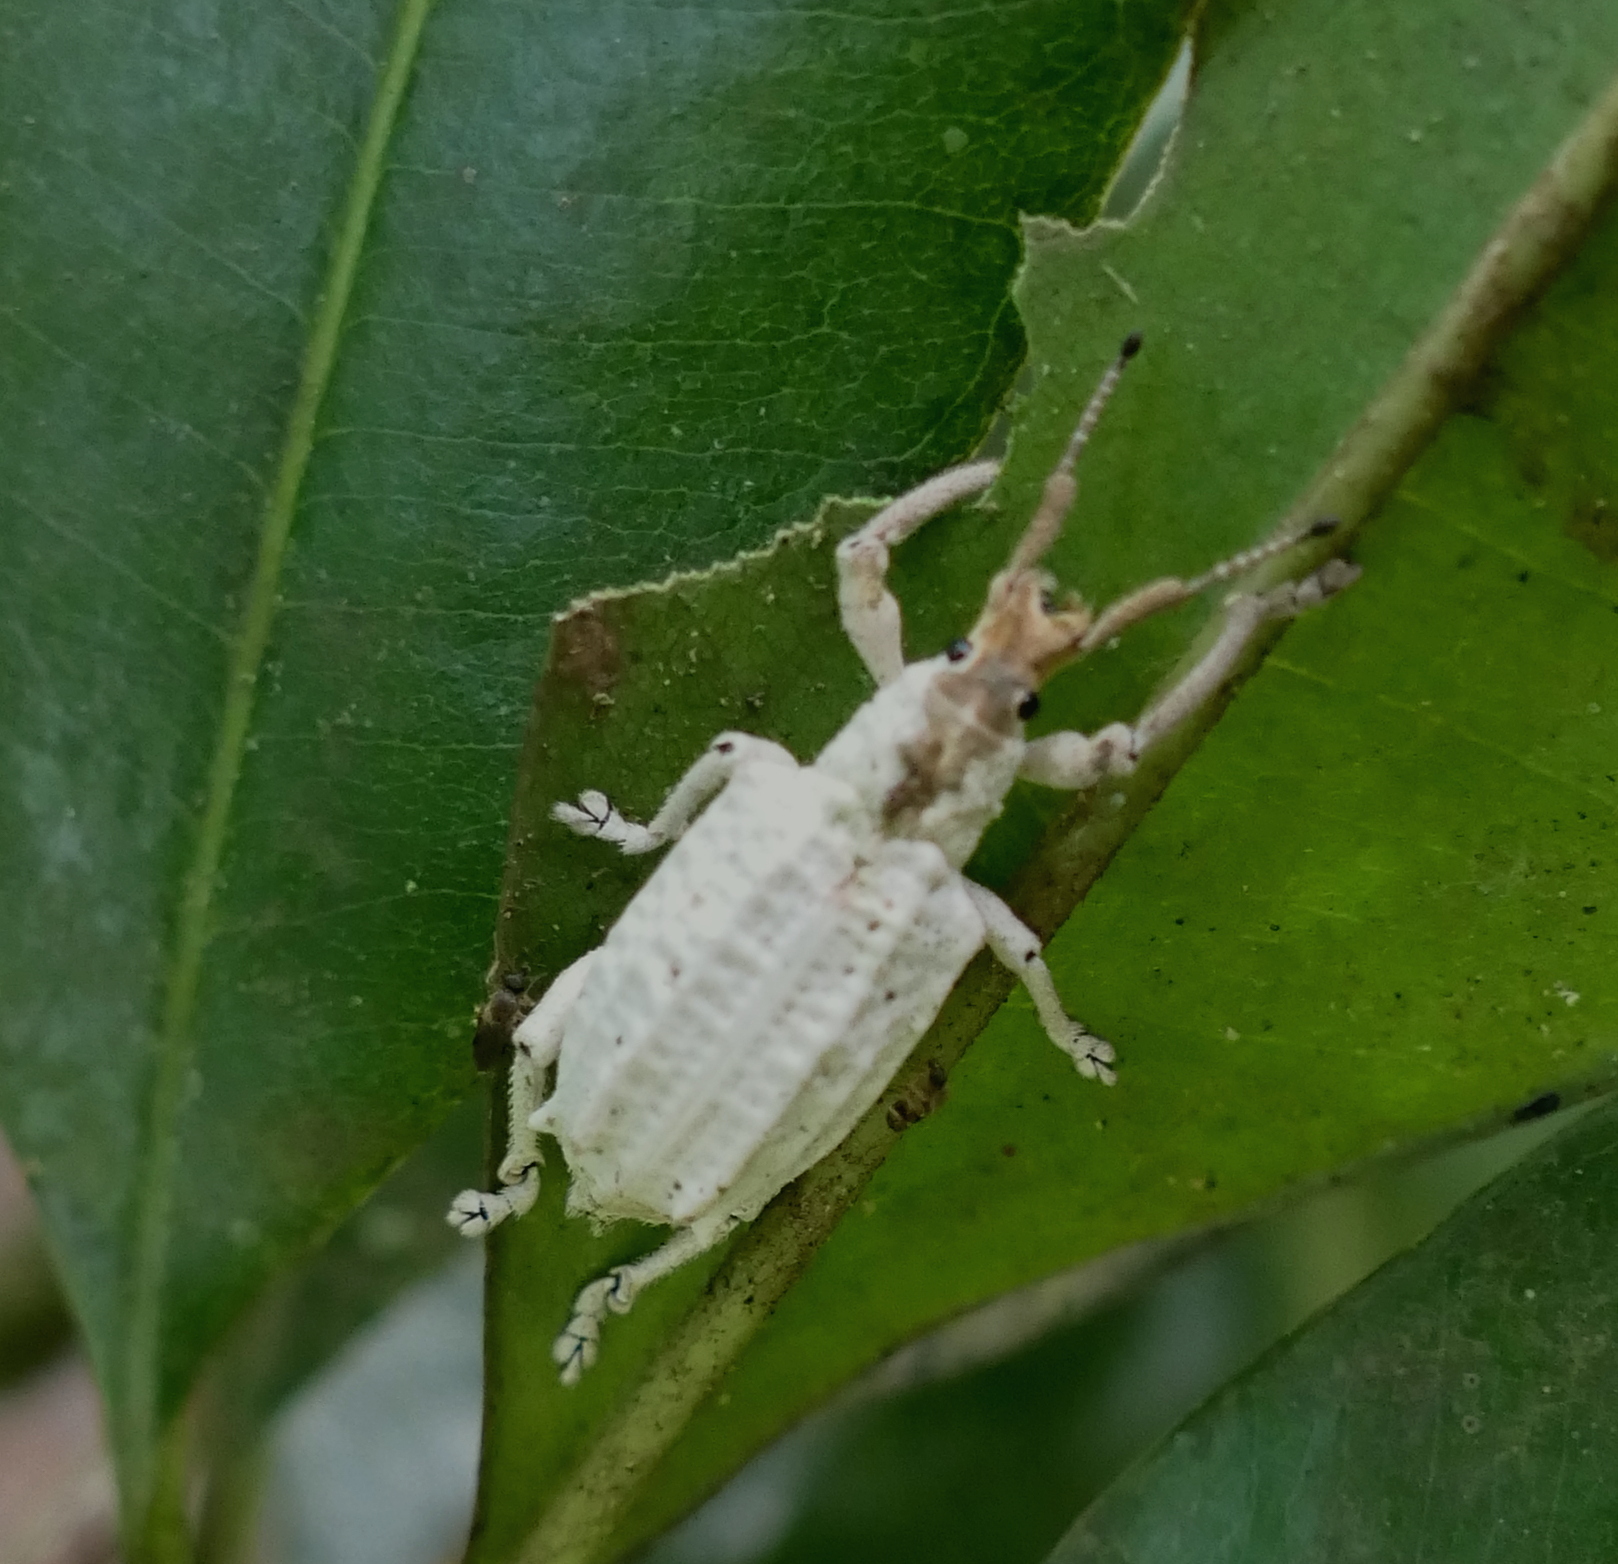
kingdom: Animalia
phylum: Arthropoda
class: Insecta
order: Coleoptera
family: Curculionidae
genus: Compsus
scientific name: Compsus niveus
